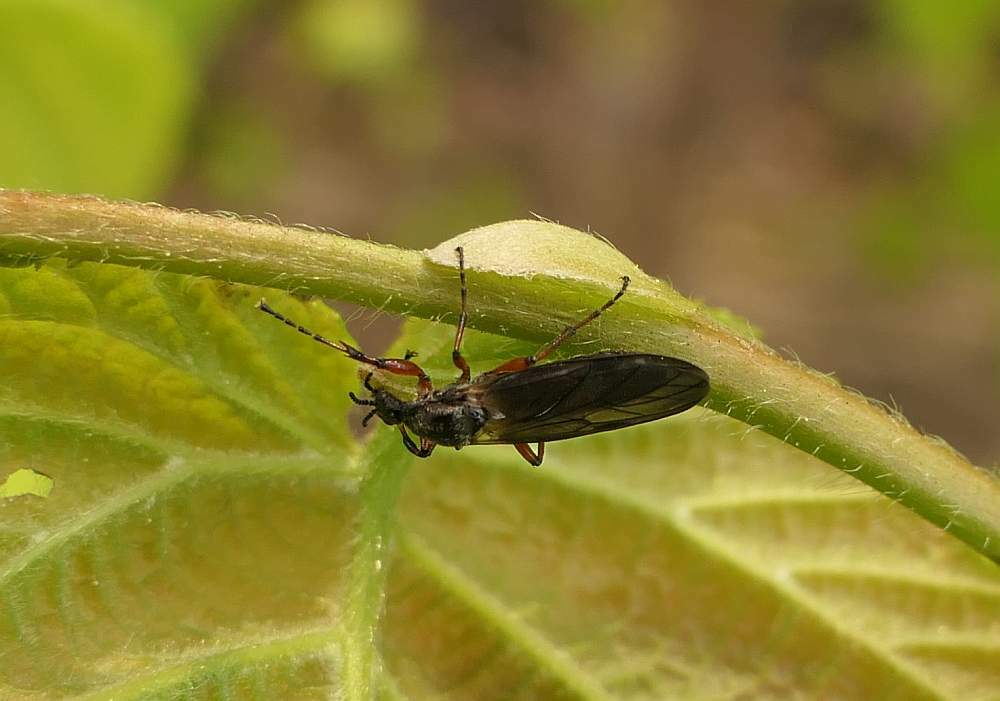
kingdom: Animalia
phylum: Arthropoda
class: Insecta
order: Diptera
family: Bibionidae
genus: Bibio
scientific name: Bibio xanthopus
